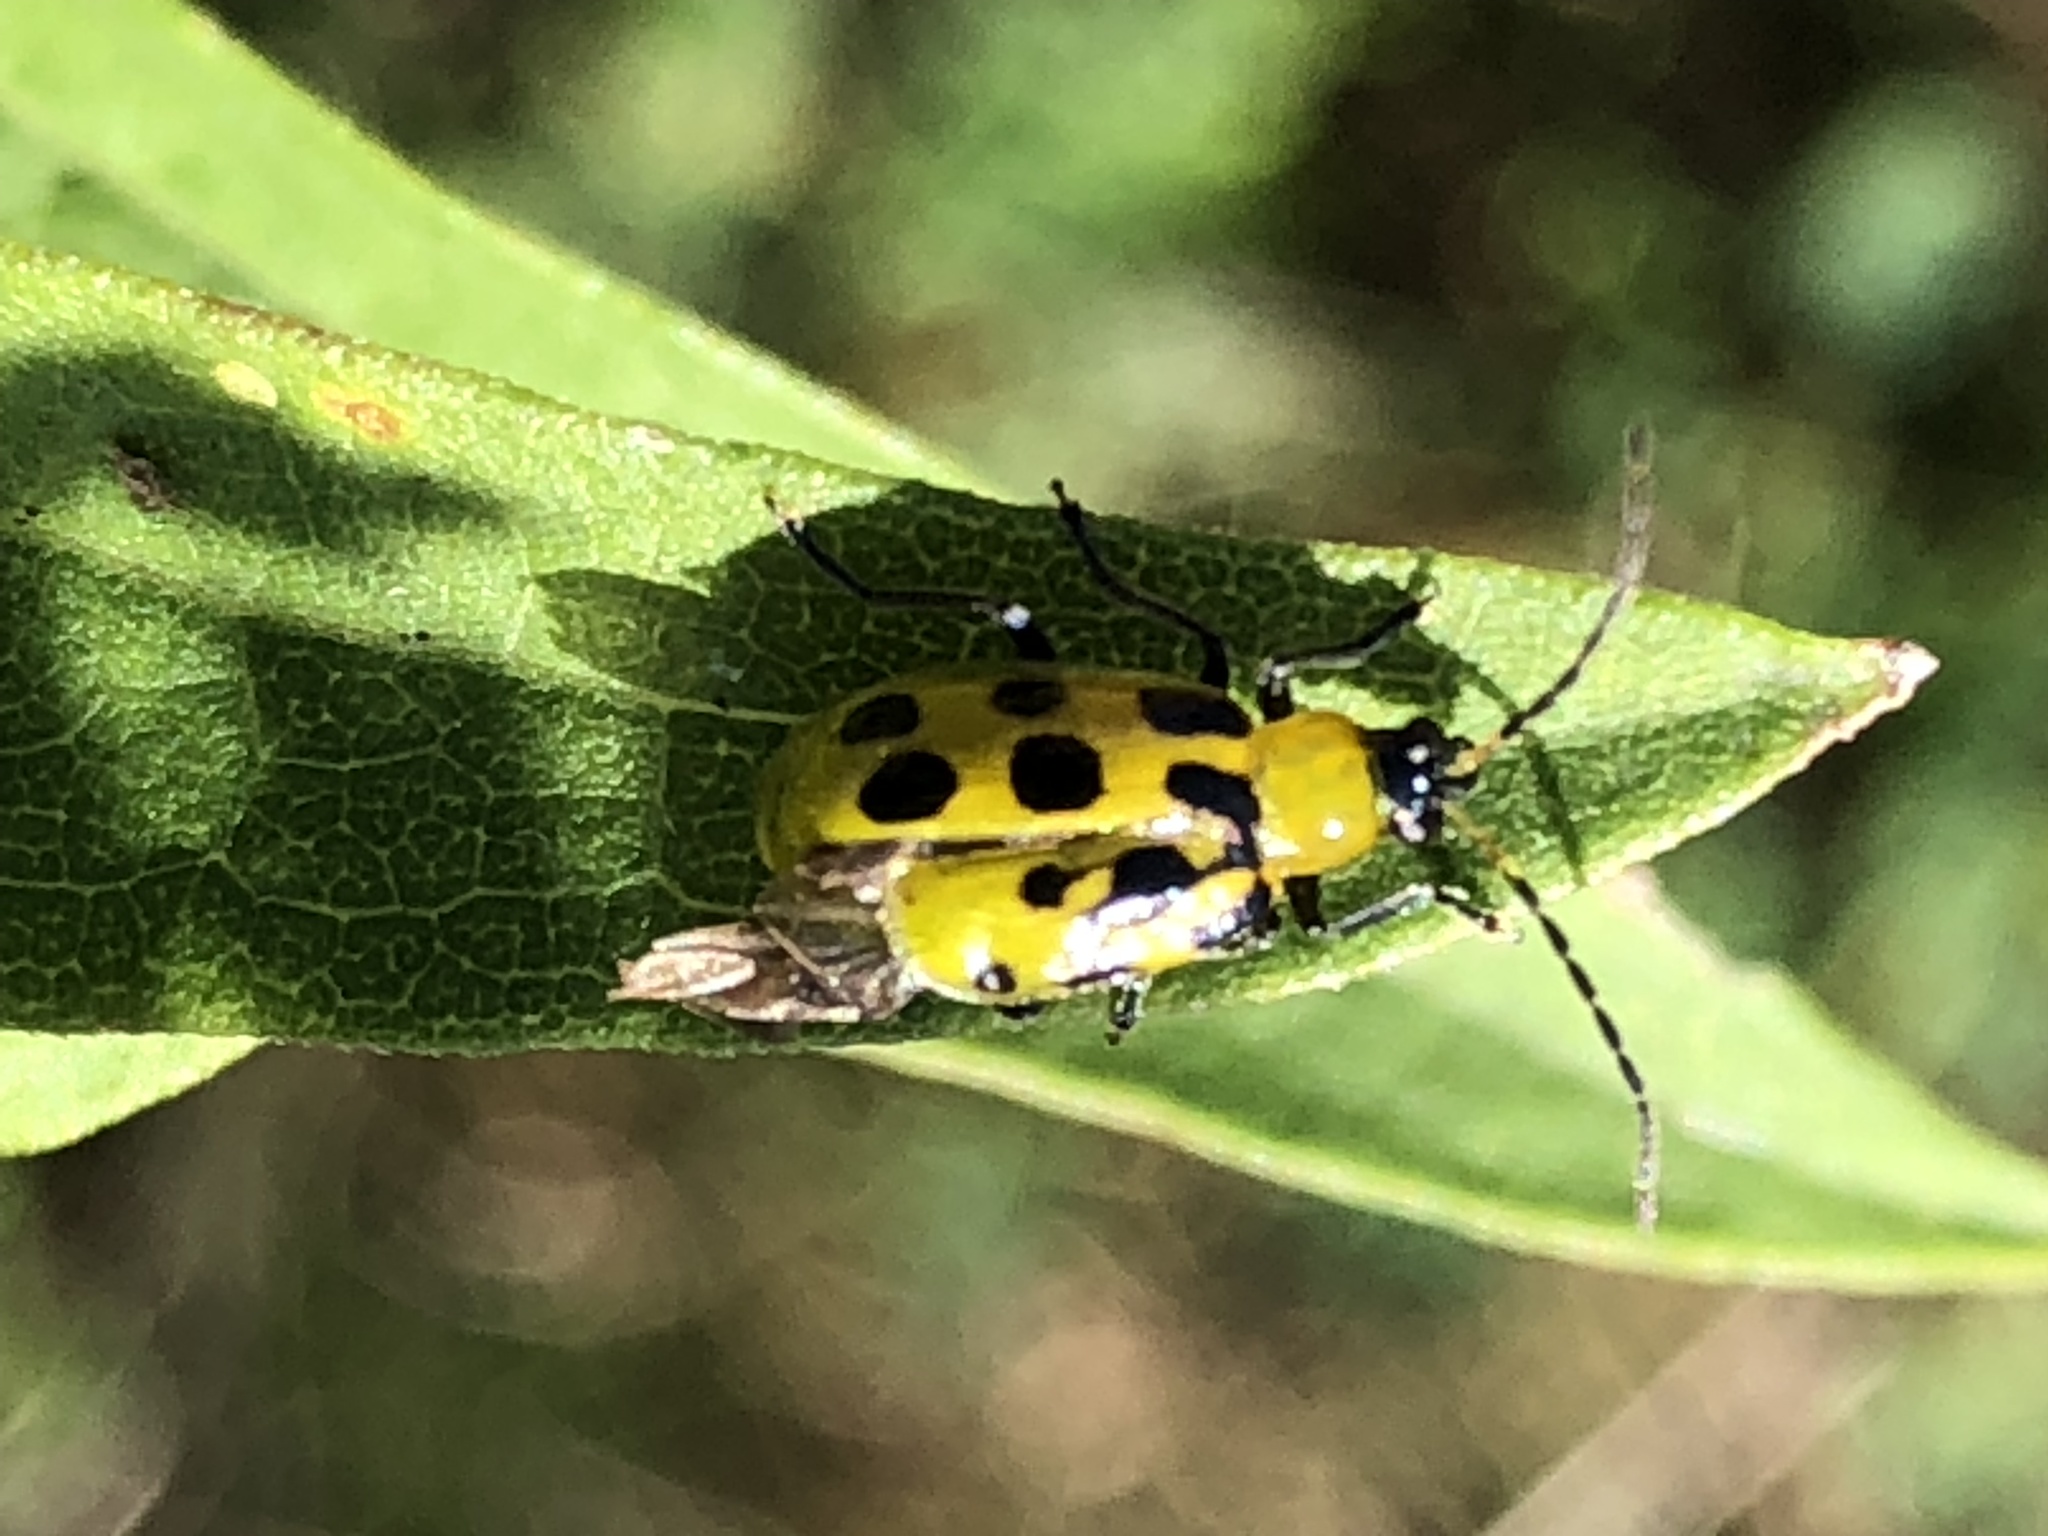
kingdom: Animalia
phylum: Arthropoda
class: Insecta
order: Coleoptera
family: Chrysomelidae
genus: Diabrotica
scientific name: Diabrotica undecimpunctata
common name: Spotted cucumber beetle
